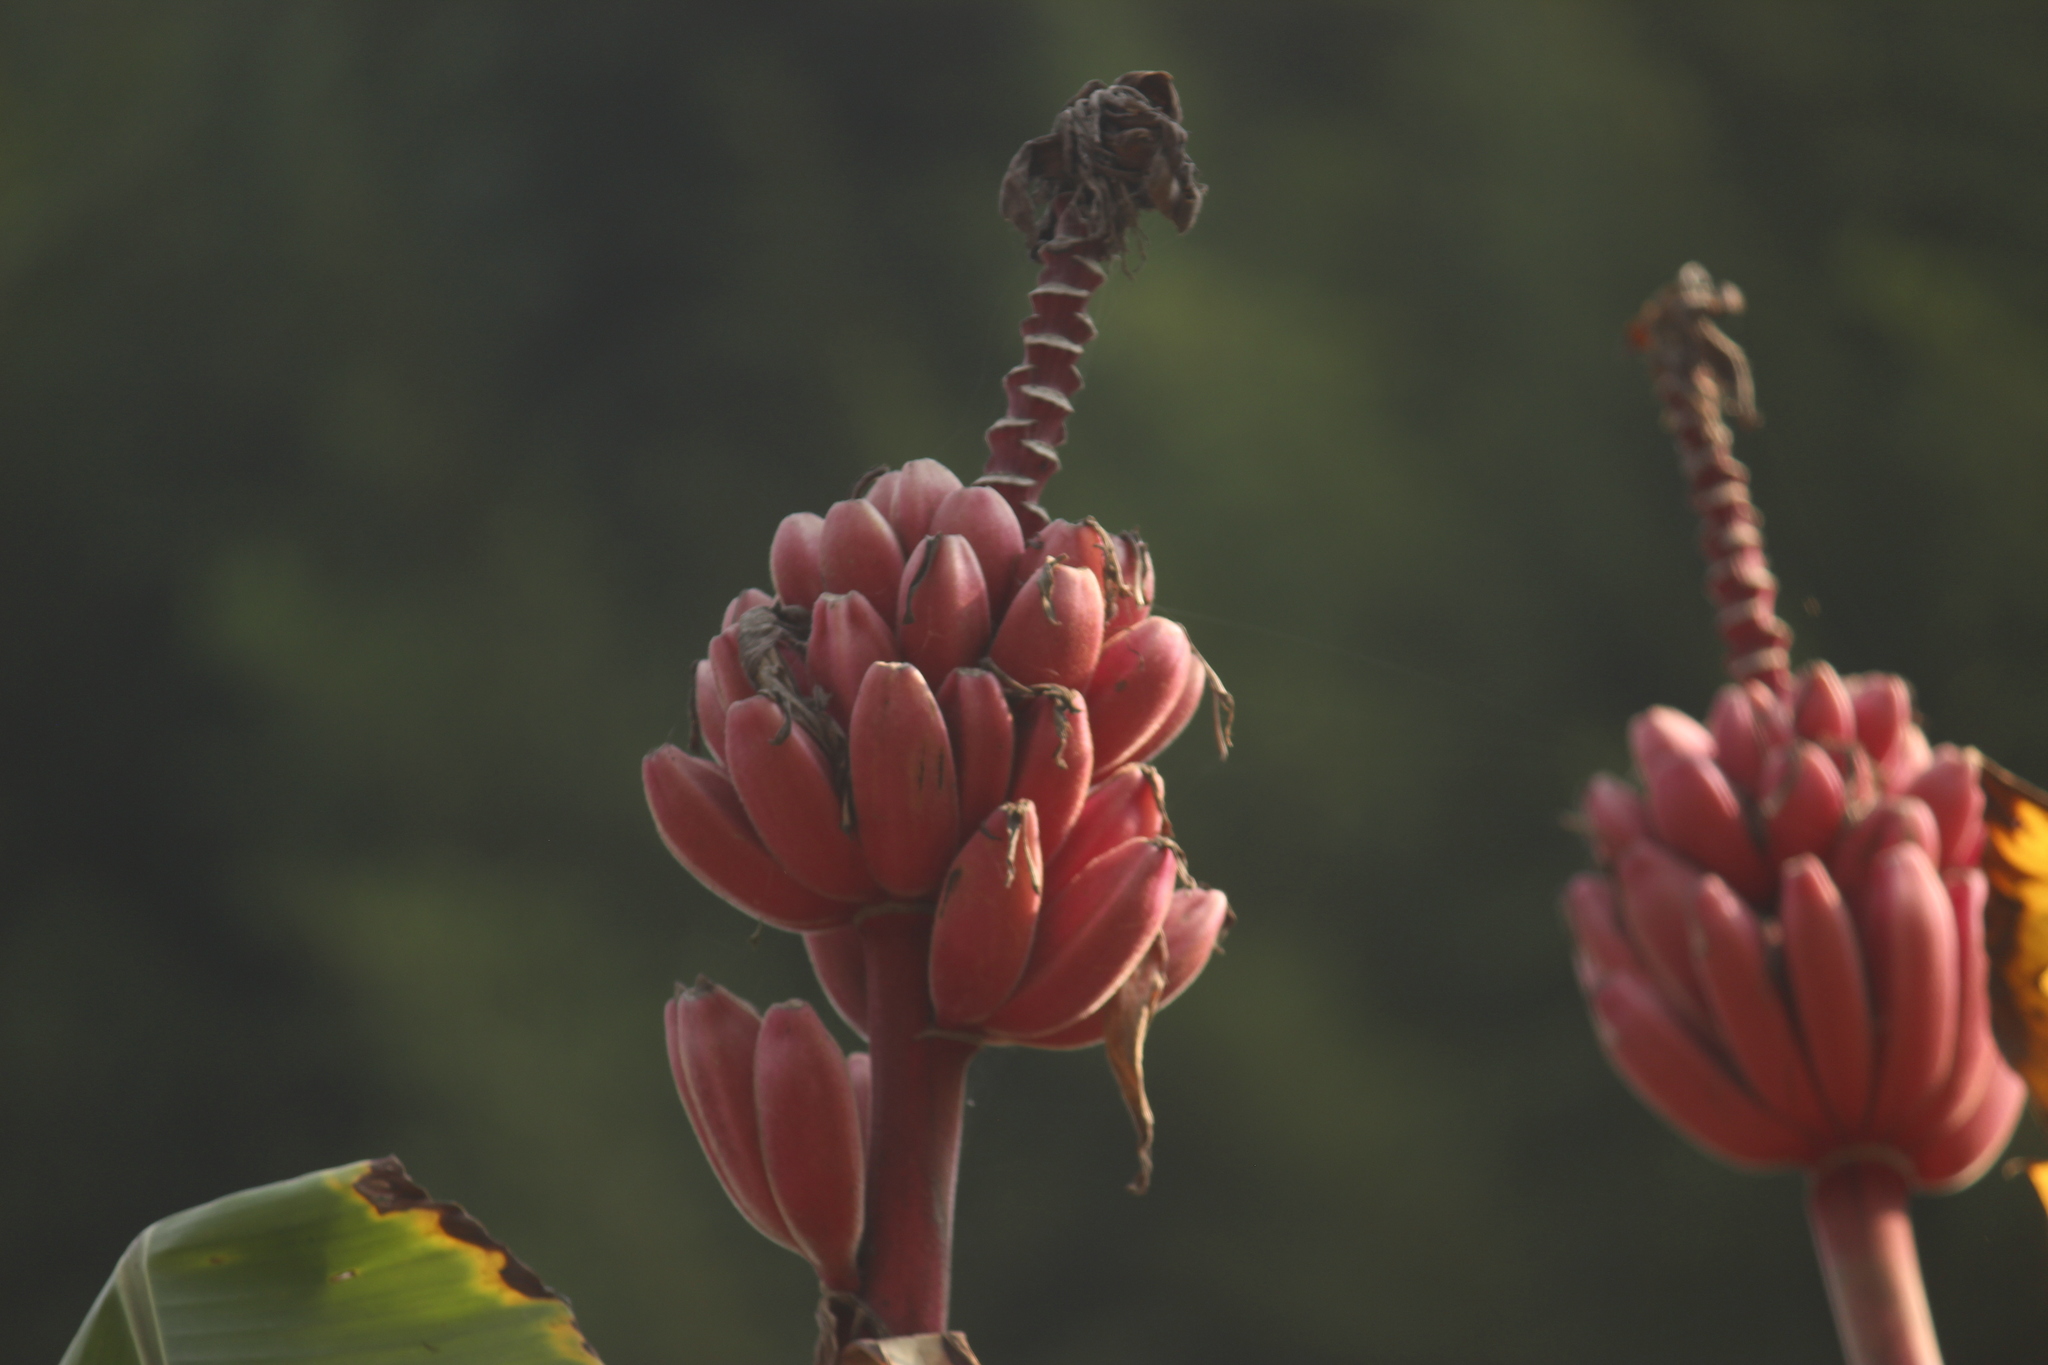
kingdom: Plantae
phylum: Tracheophyta
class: Liliopsida
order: Zingiberales
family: Musaceae
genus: Musa
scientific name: Musa velutina
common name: Pink velvet banana
